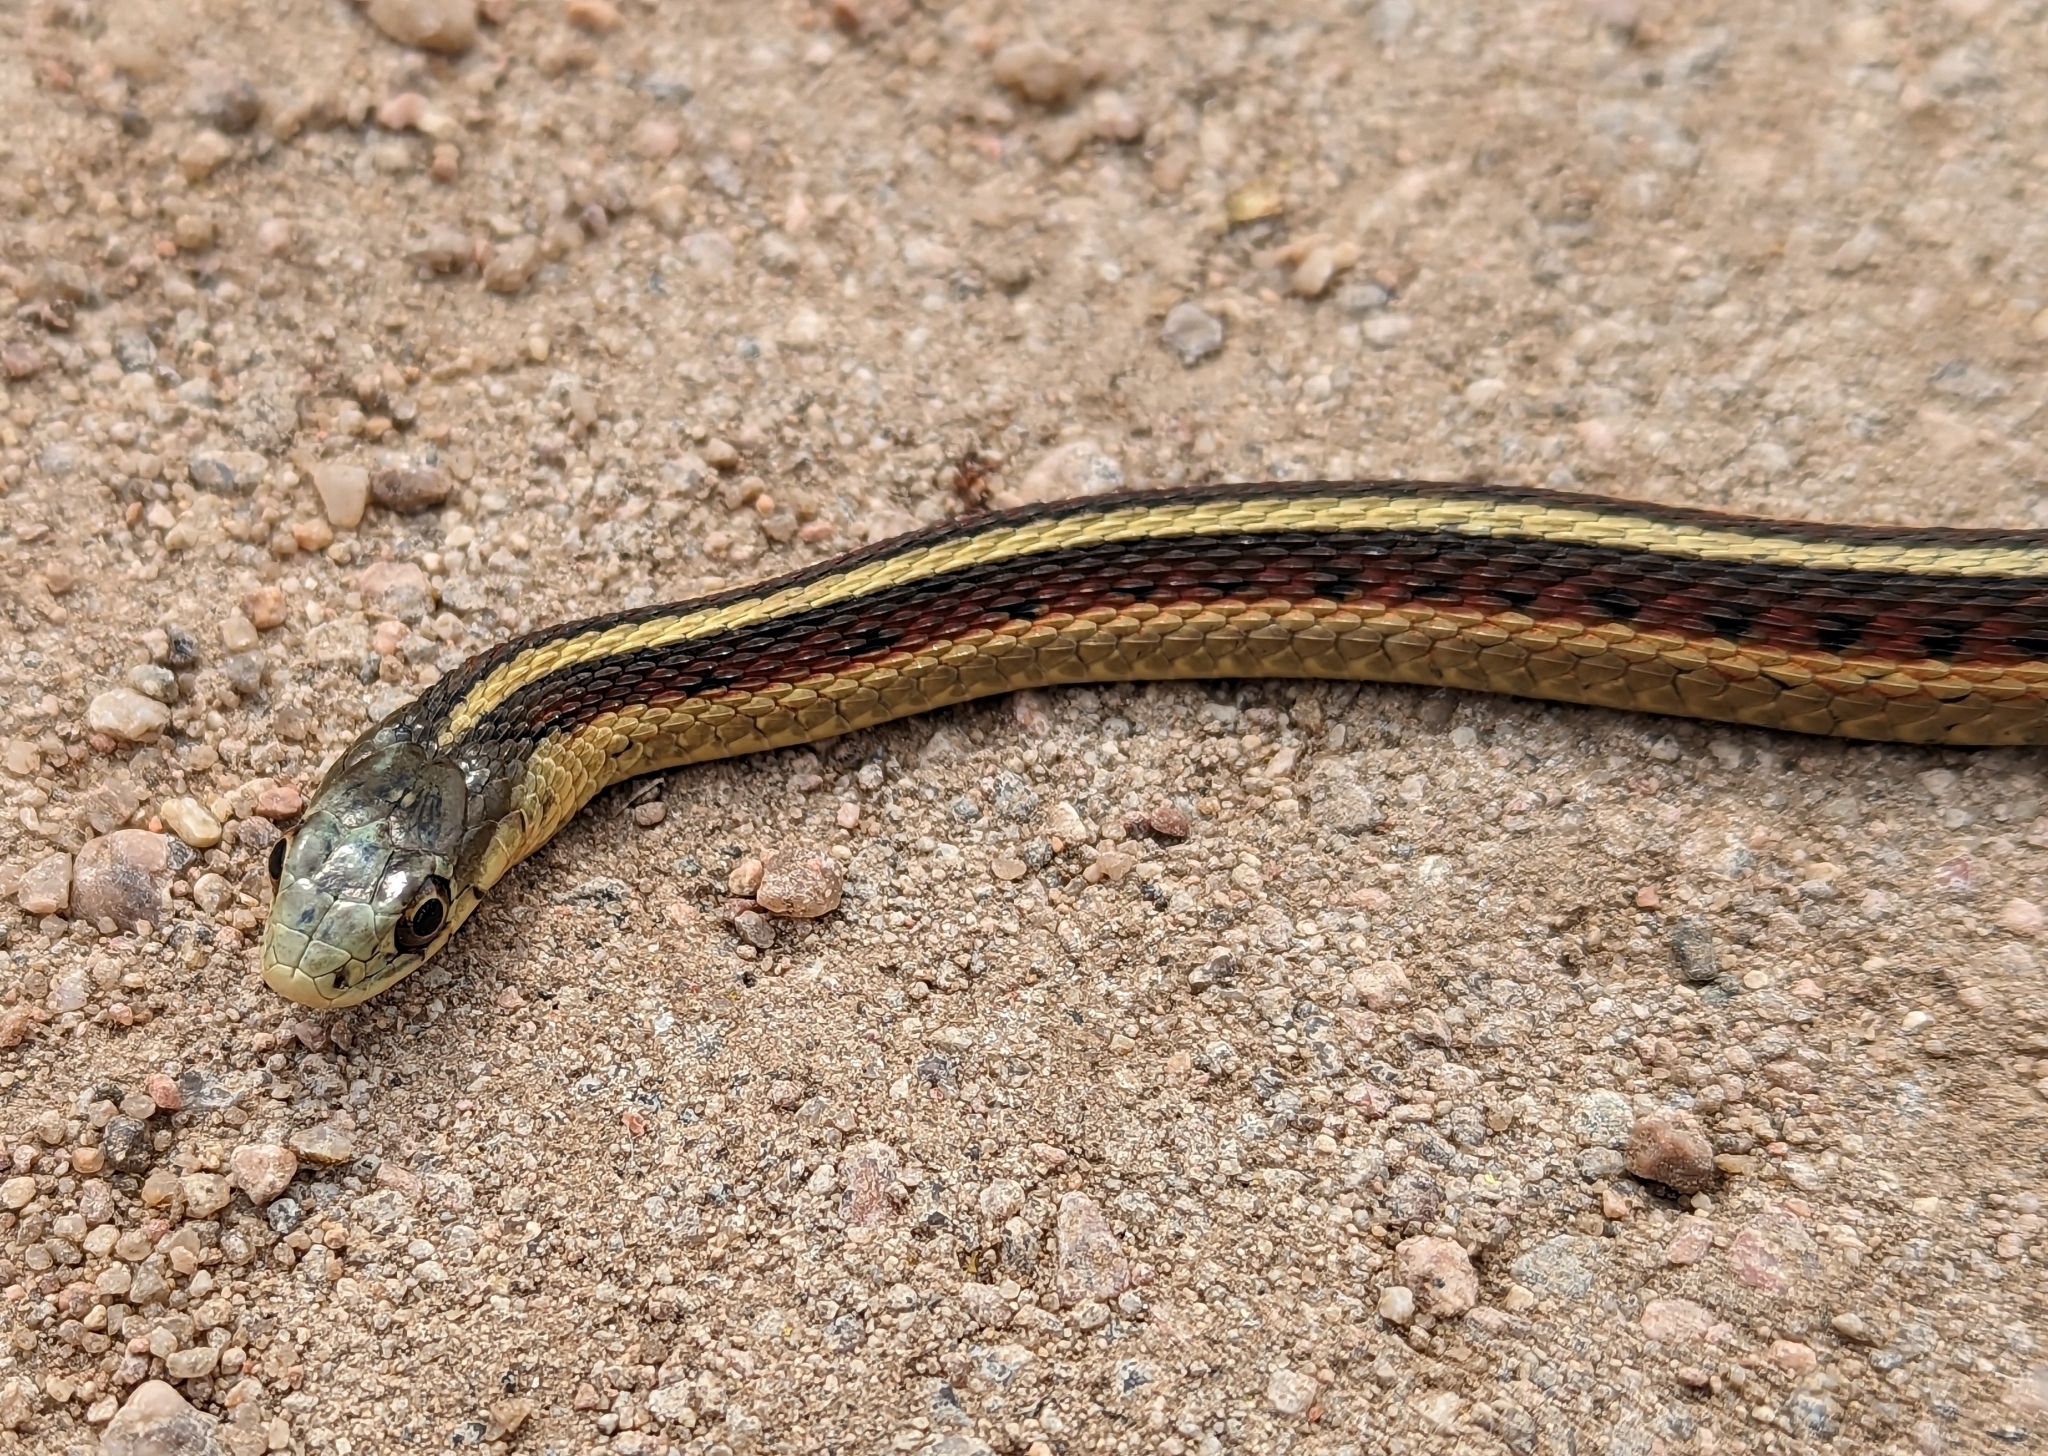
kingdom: Animalia
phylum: Chordata
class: Squamata
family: Colubridae
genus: Thamnophis
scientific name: Thamnophis sirtalis
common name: Common garter snake
